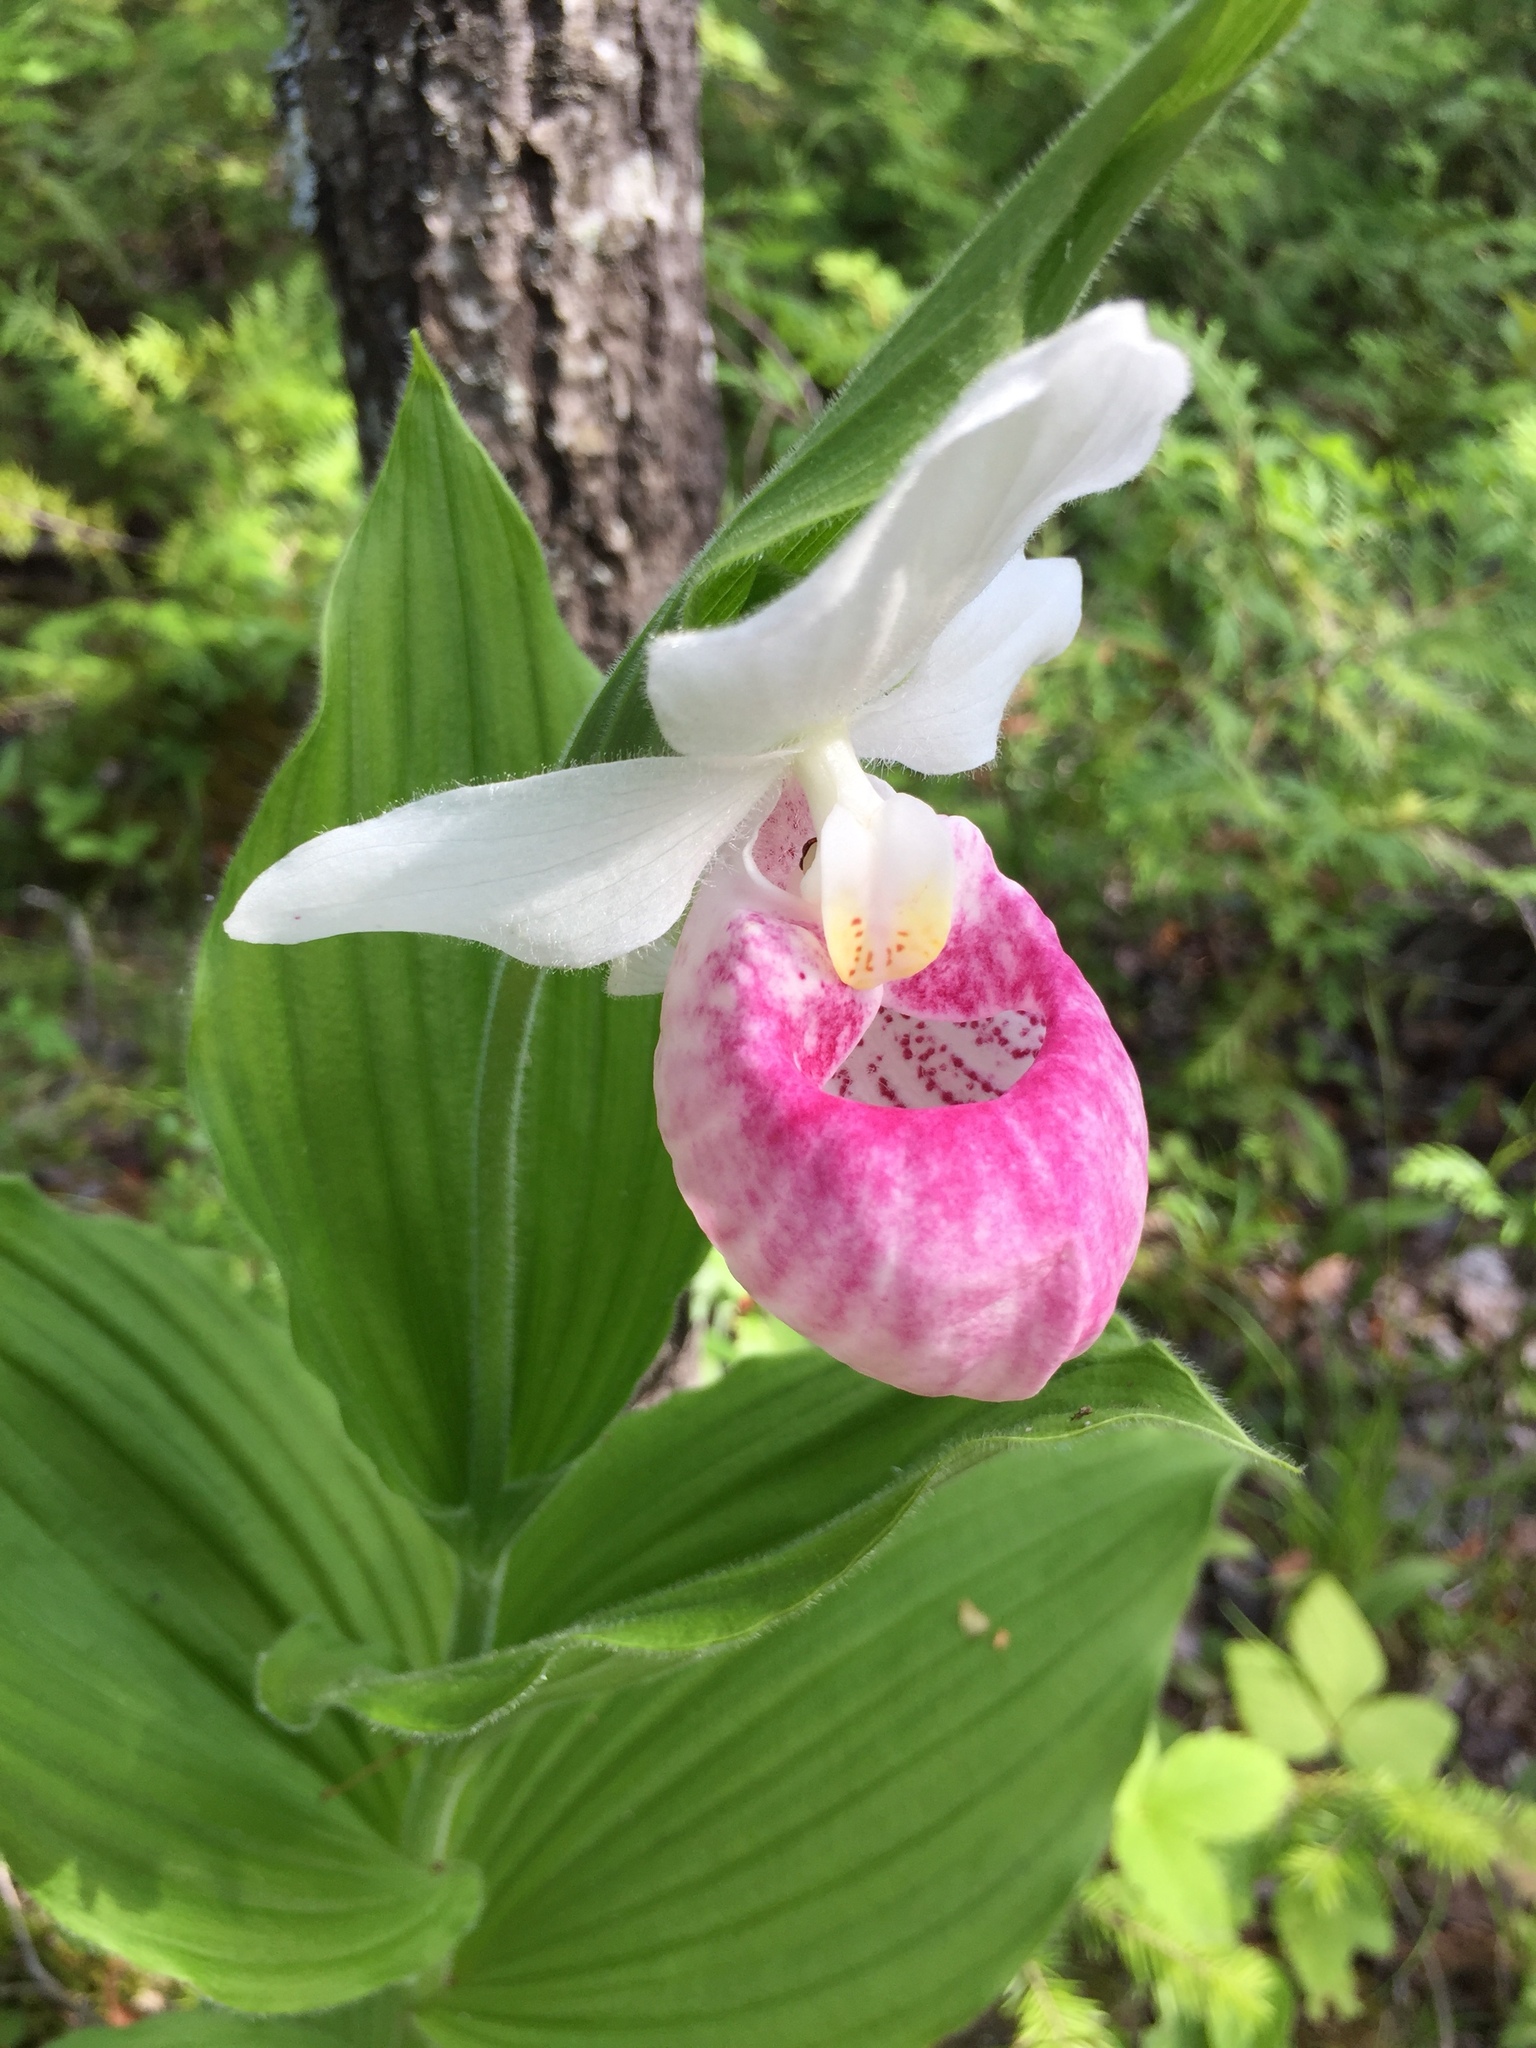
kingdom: Plantae
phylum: Tracheophyta
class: Liliopsida
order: Asparagales
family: Orchidaceae
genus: Cypripedium
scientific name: Cypripedium reginae
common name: Queen lady's-slipper
